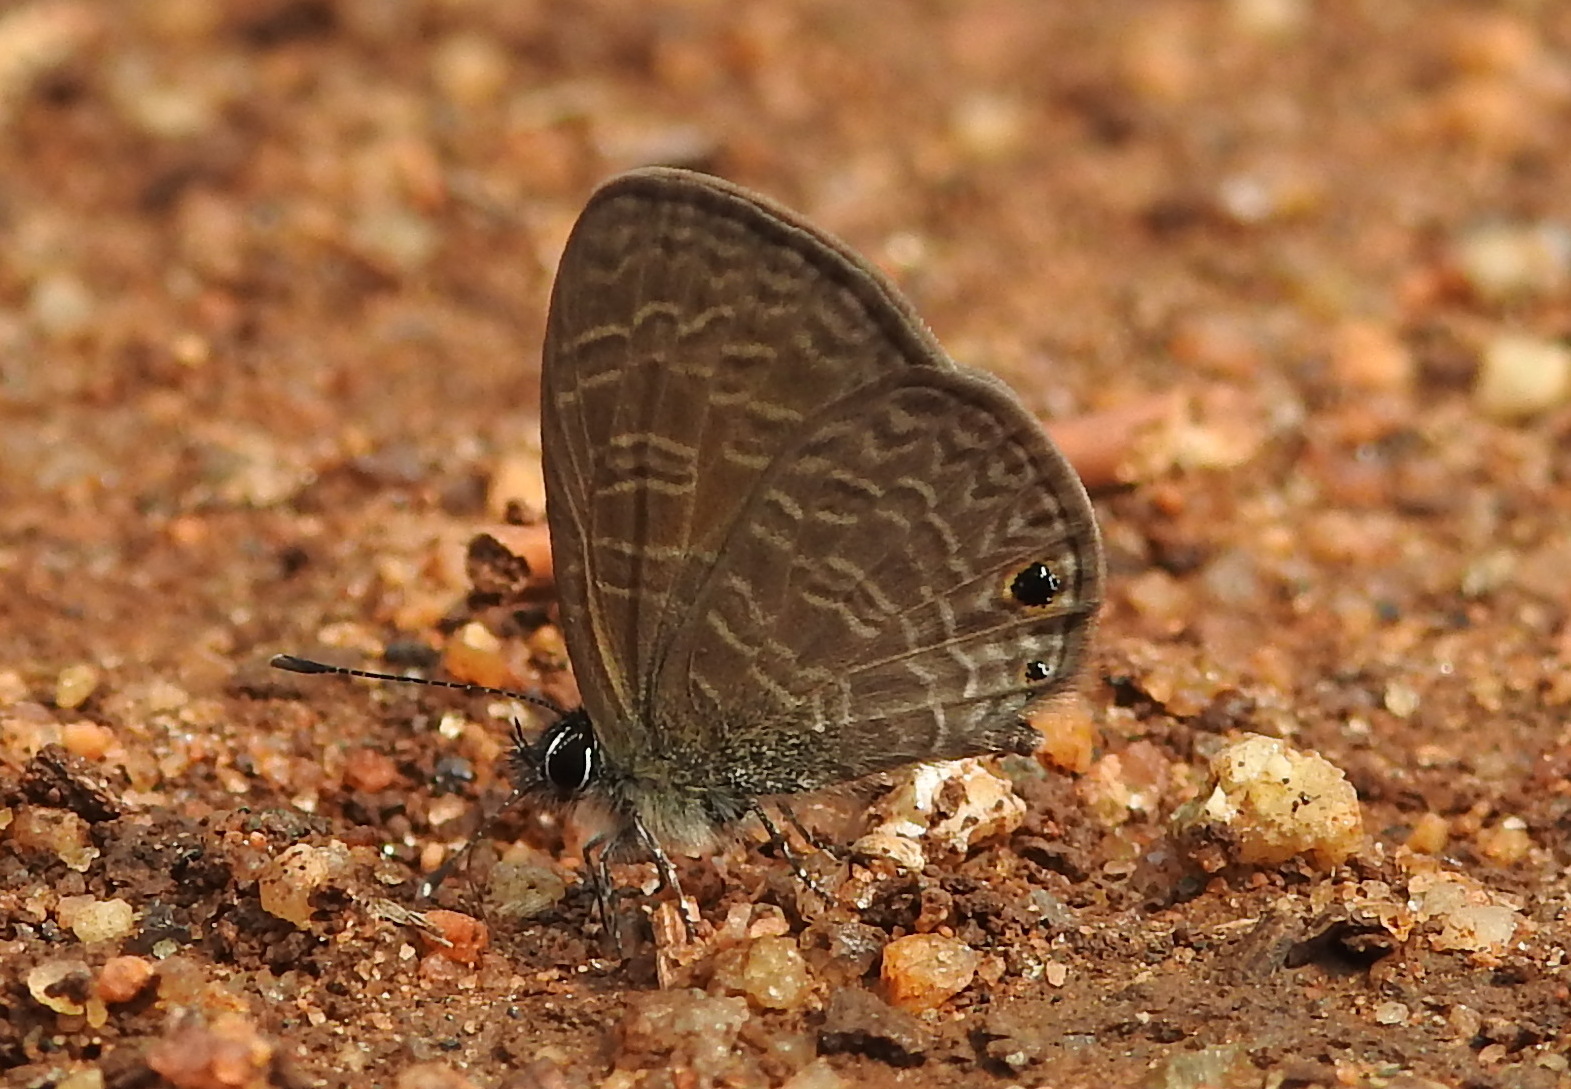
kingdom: Animalia
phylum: Arthropoda
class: Insecta
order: Lepidoptera
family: Lycaenidae
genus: Prosotas
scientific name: Prosotas dubiosa
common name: Tailless lineblue
